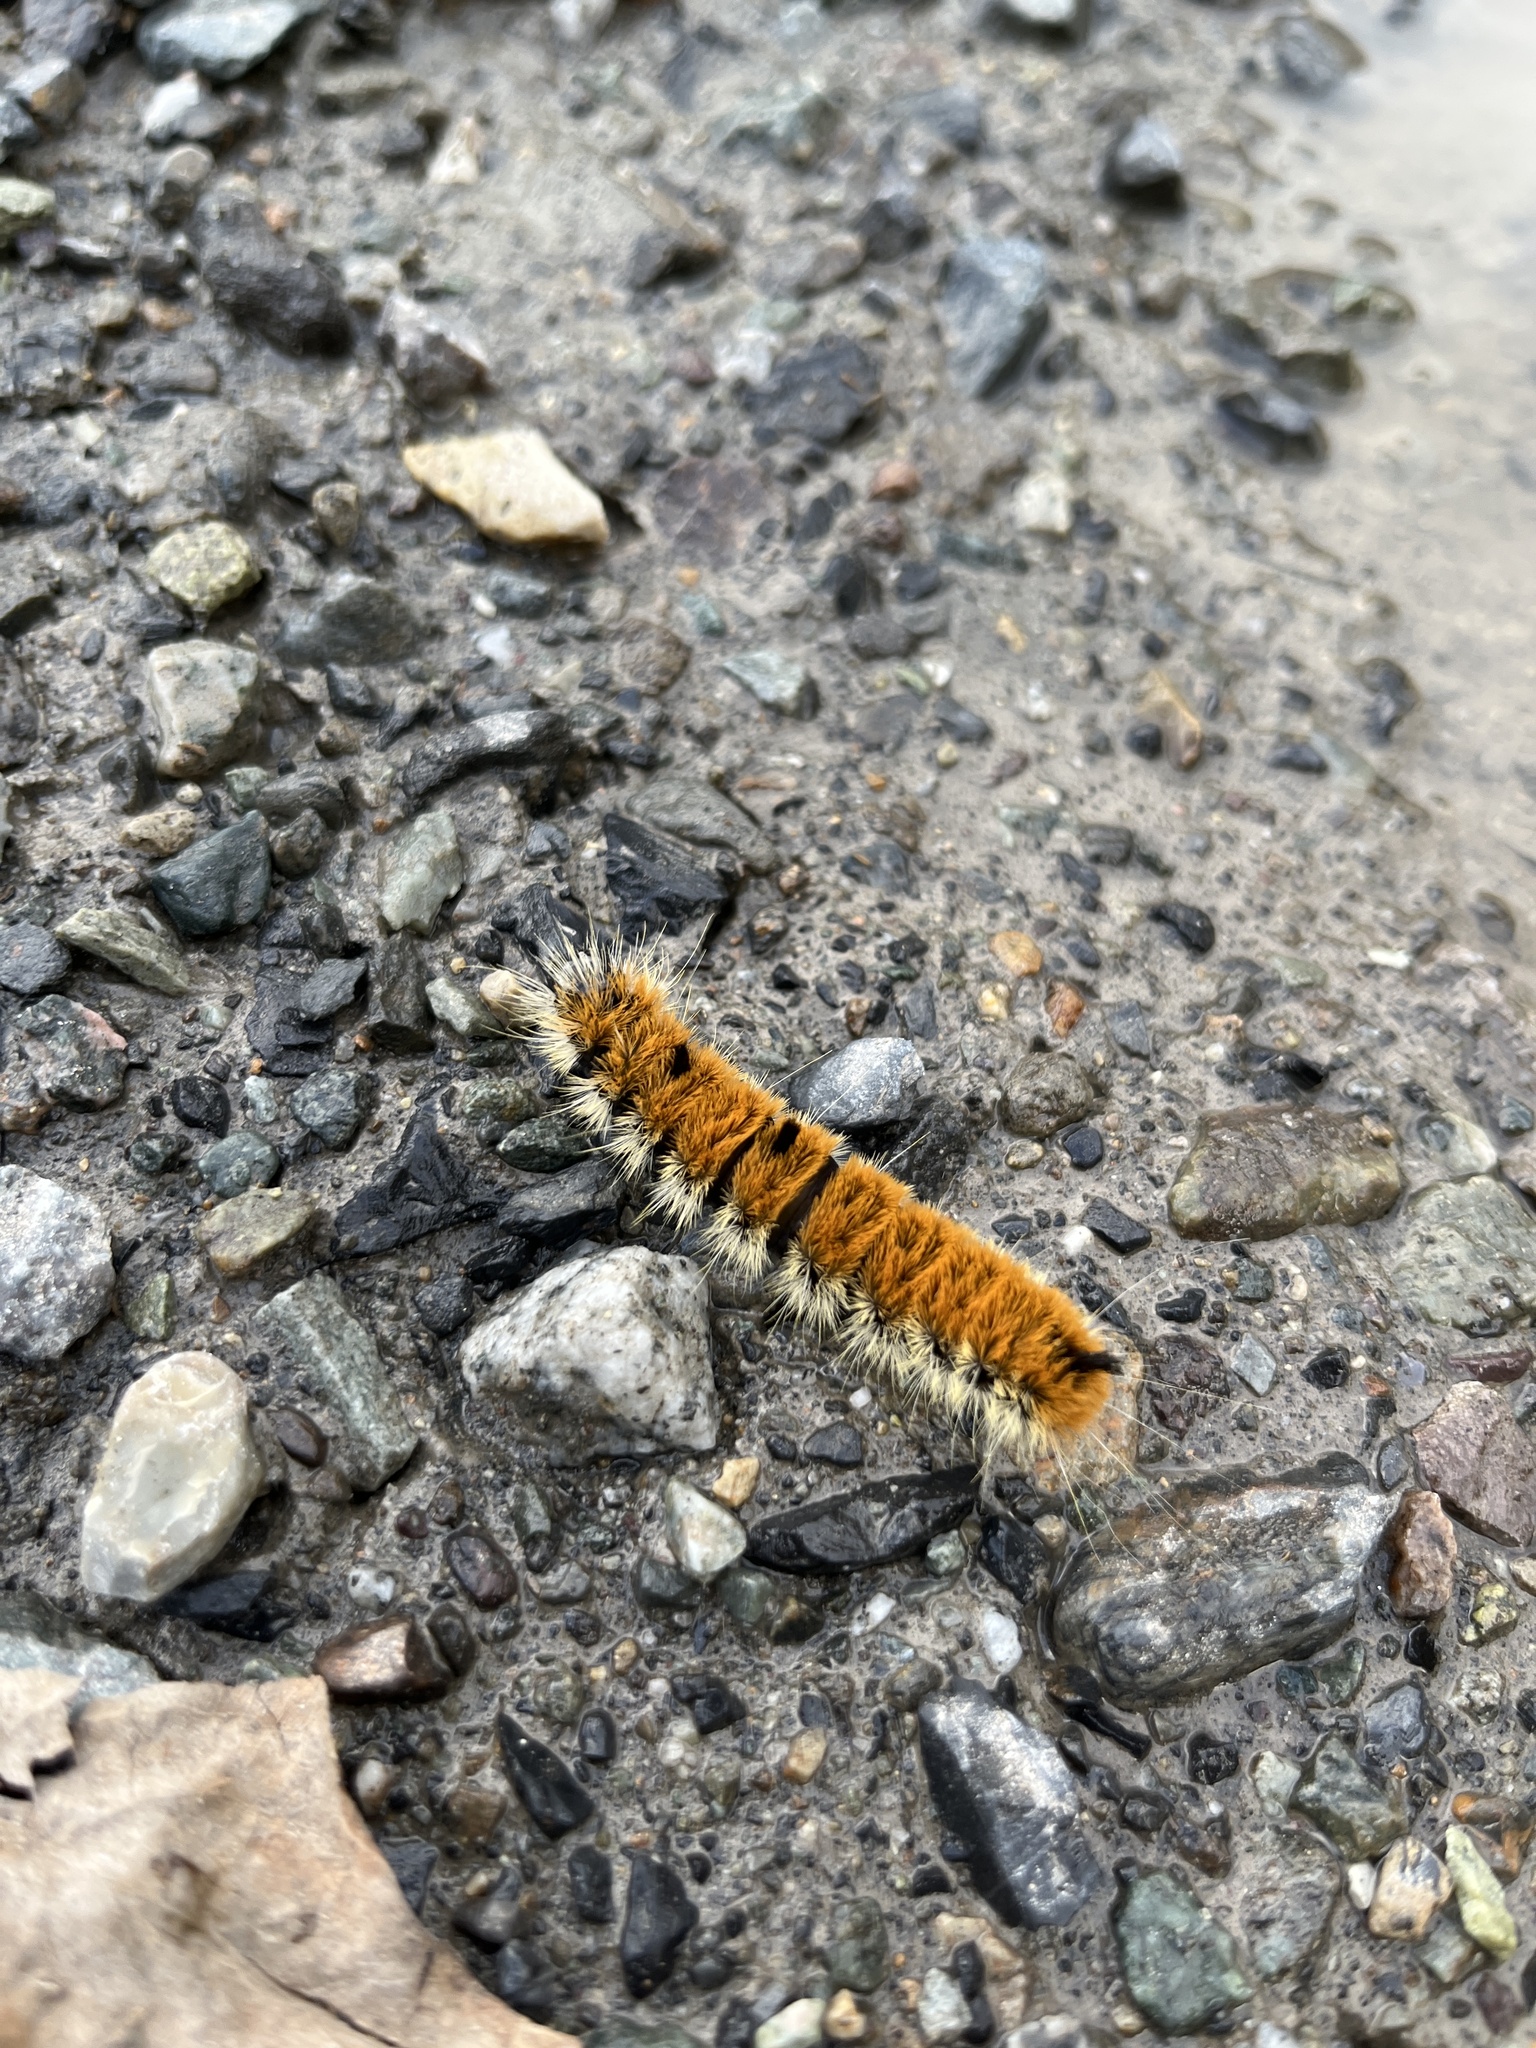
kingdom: Animalia
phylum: Arthropoda
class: Insecta
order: Lepidoptera
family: Noctuidae
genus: Acronicta
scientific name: Acronicta insita
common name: Large gray dagger
